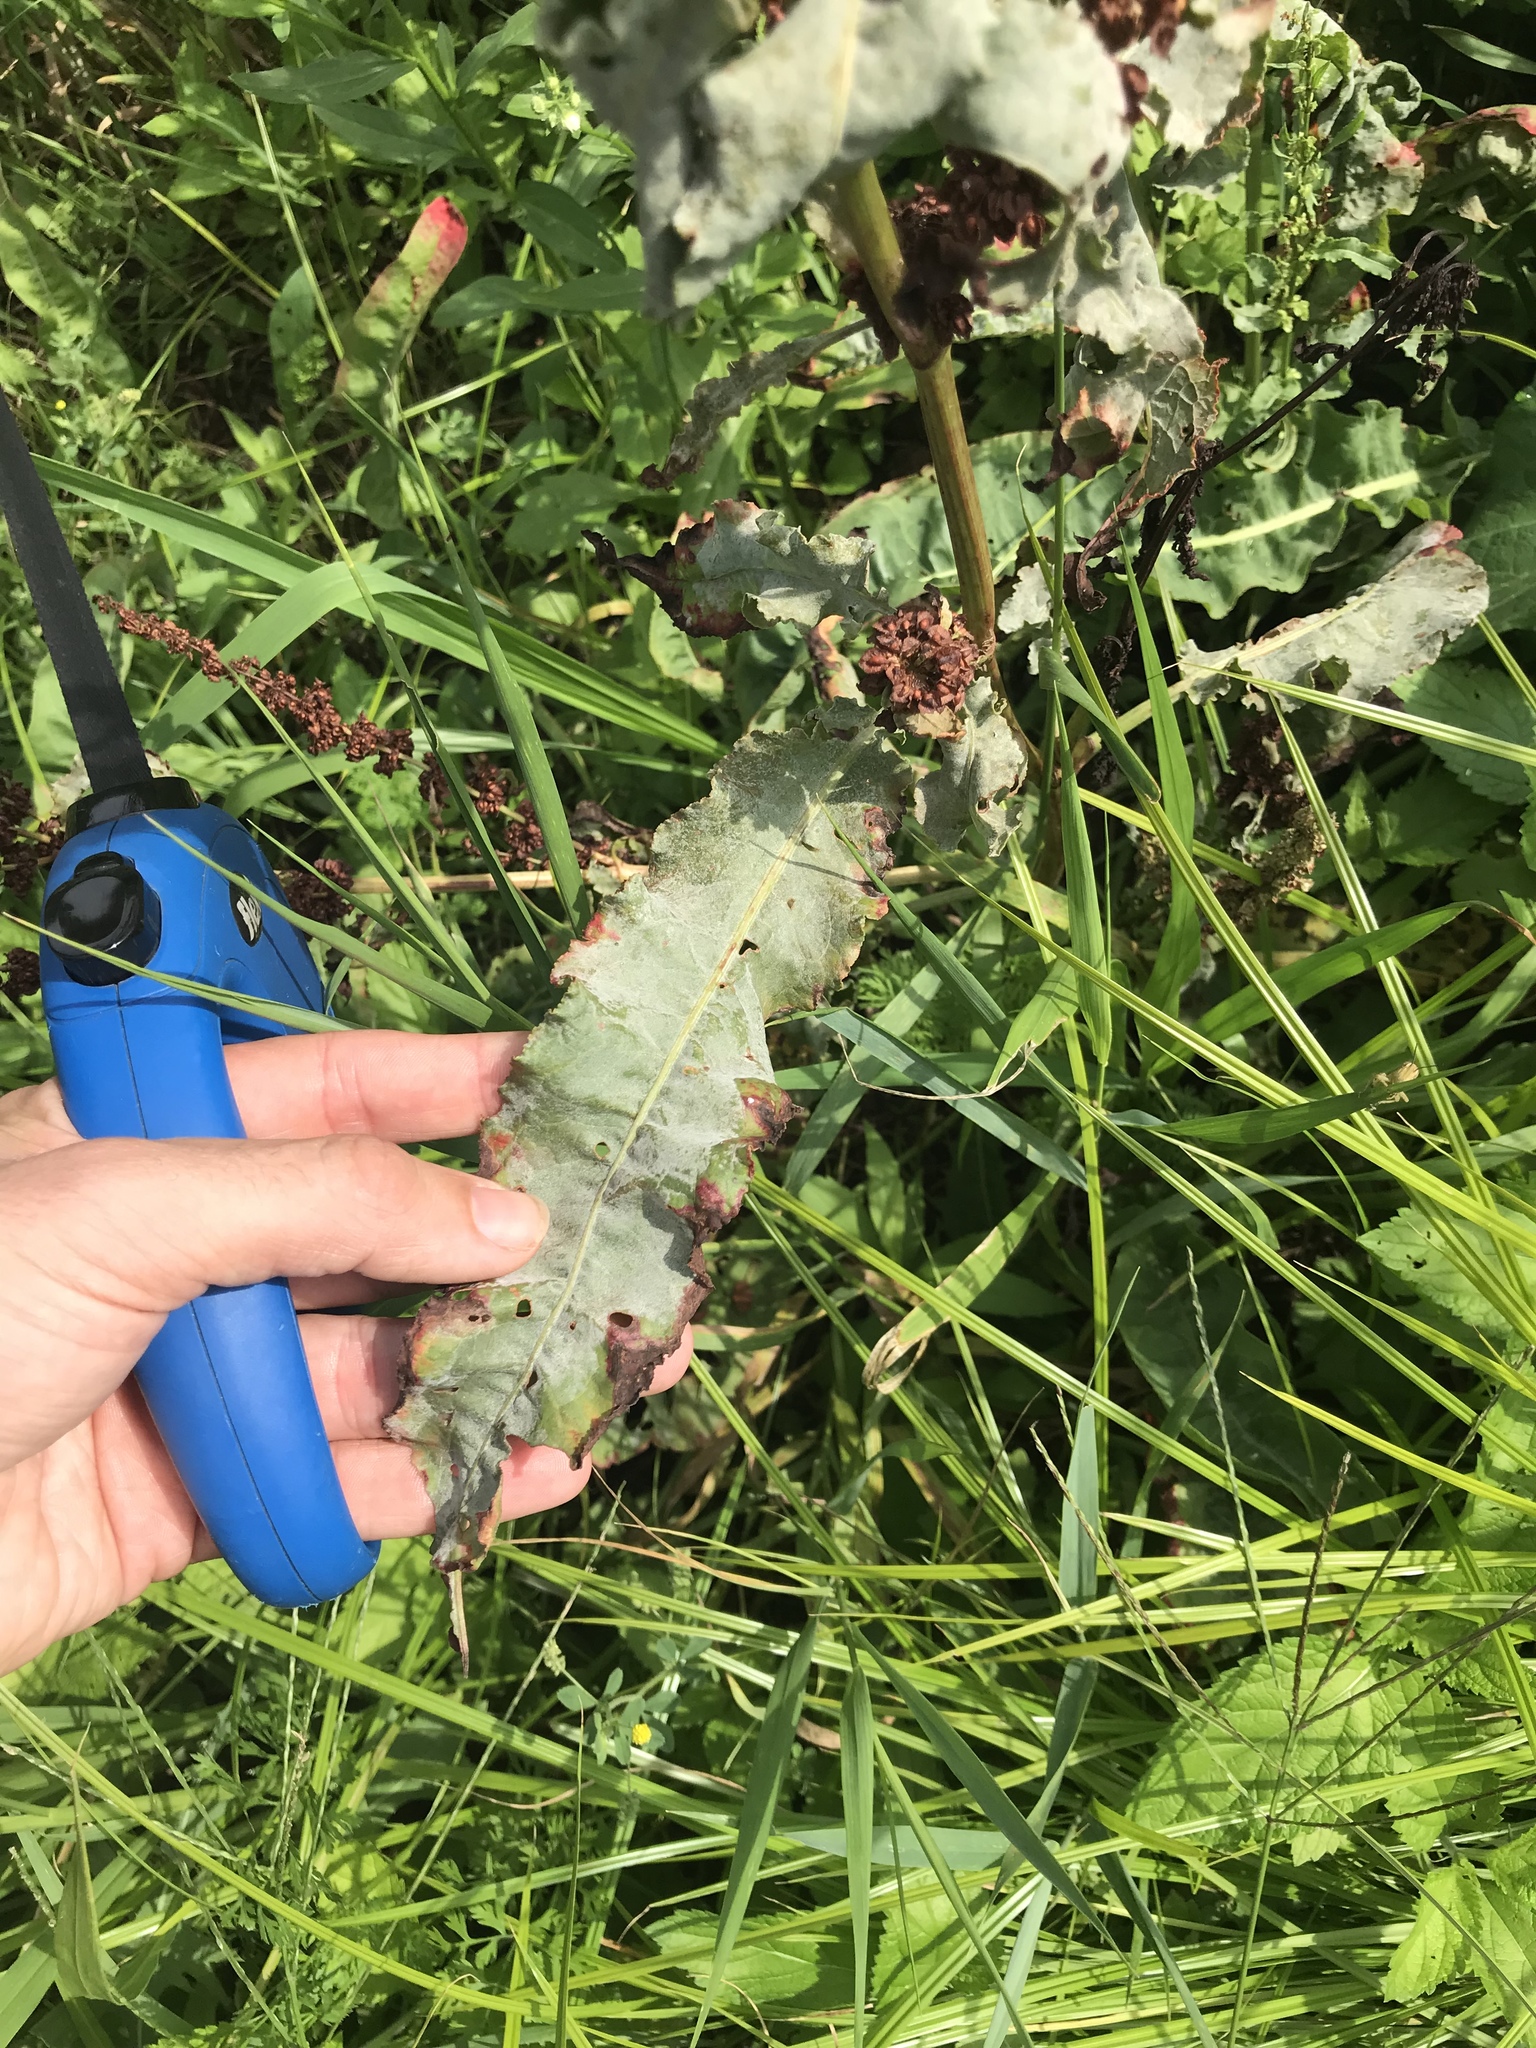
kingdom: Plantae
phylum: Tracheophyta
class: Magnoliopsida
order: Caryophyllales
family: Polygonaceae
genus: Rumex
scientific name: Rumex crispus
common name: Curled dock
